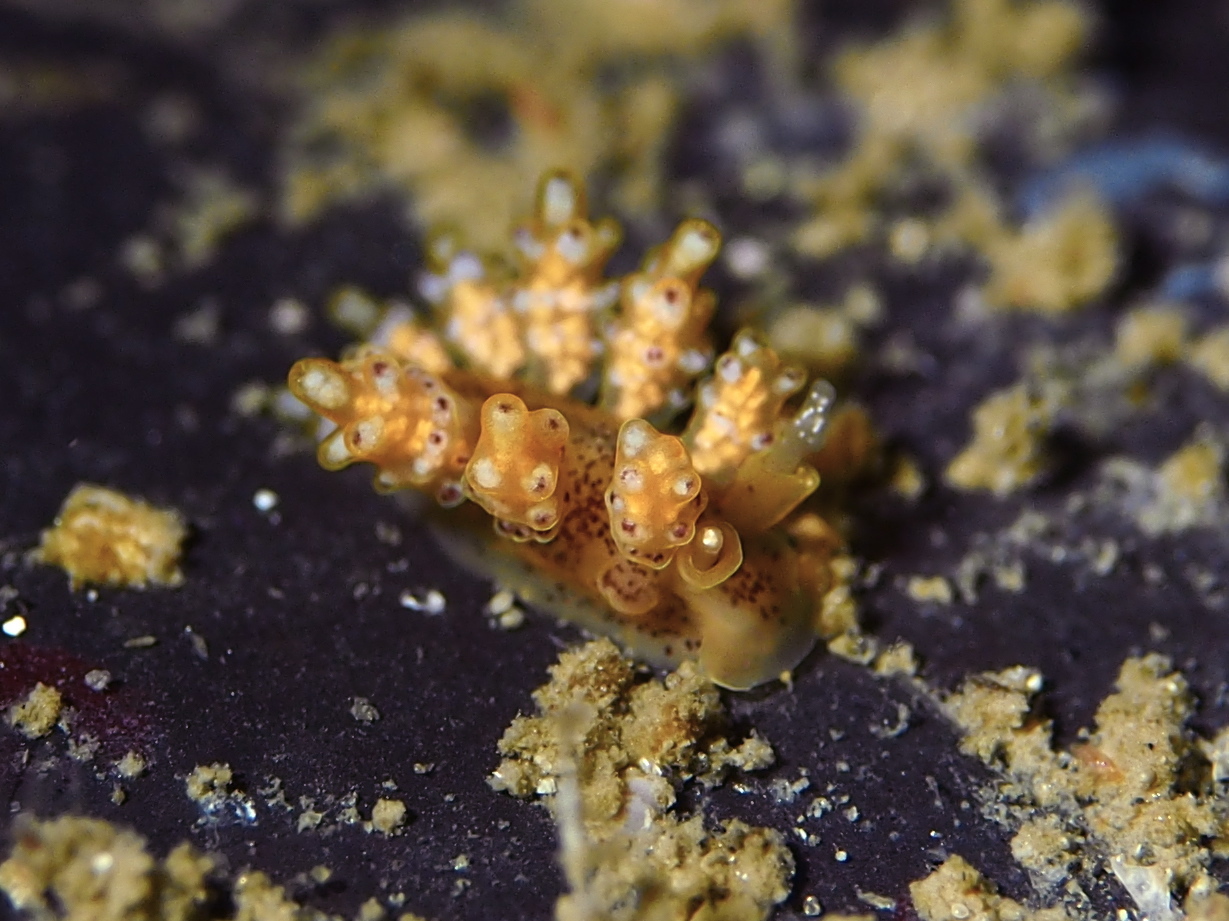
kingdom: Animalia
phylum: Mollusca
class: Gastropoda
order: Nudibranchia
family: Dotidae
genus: Doto
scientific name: Doto maculata
